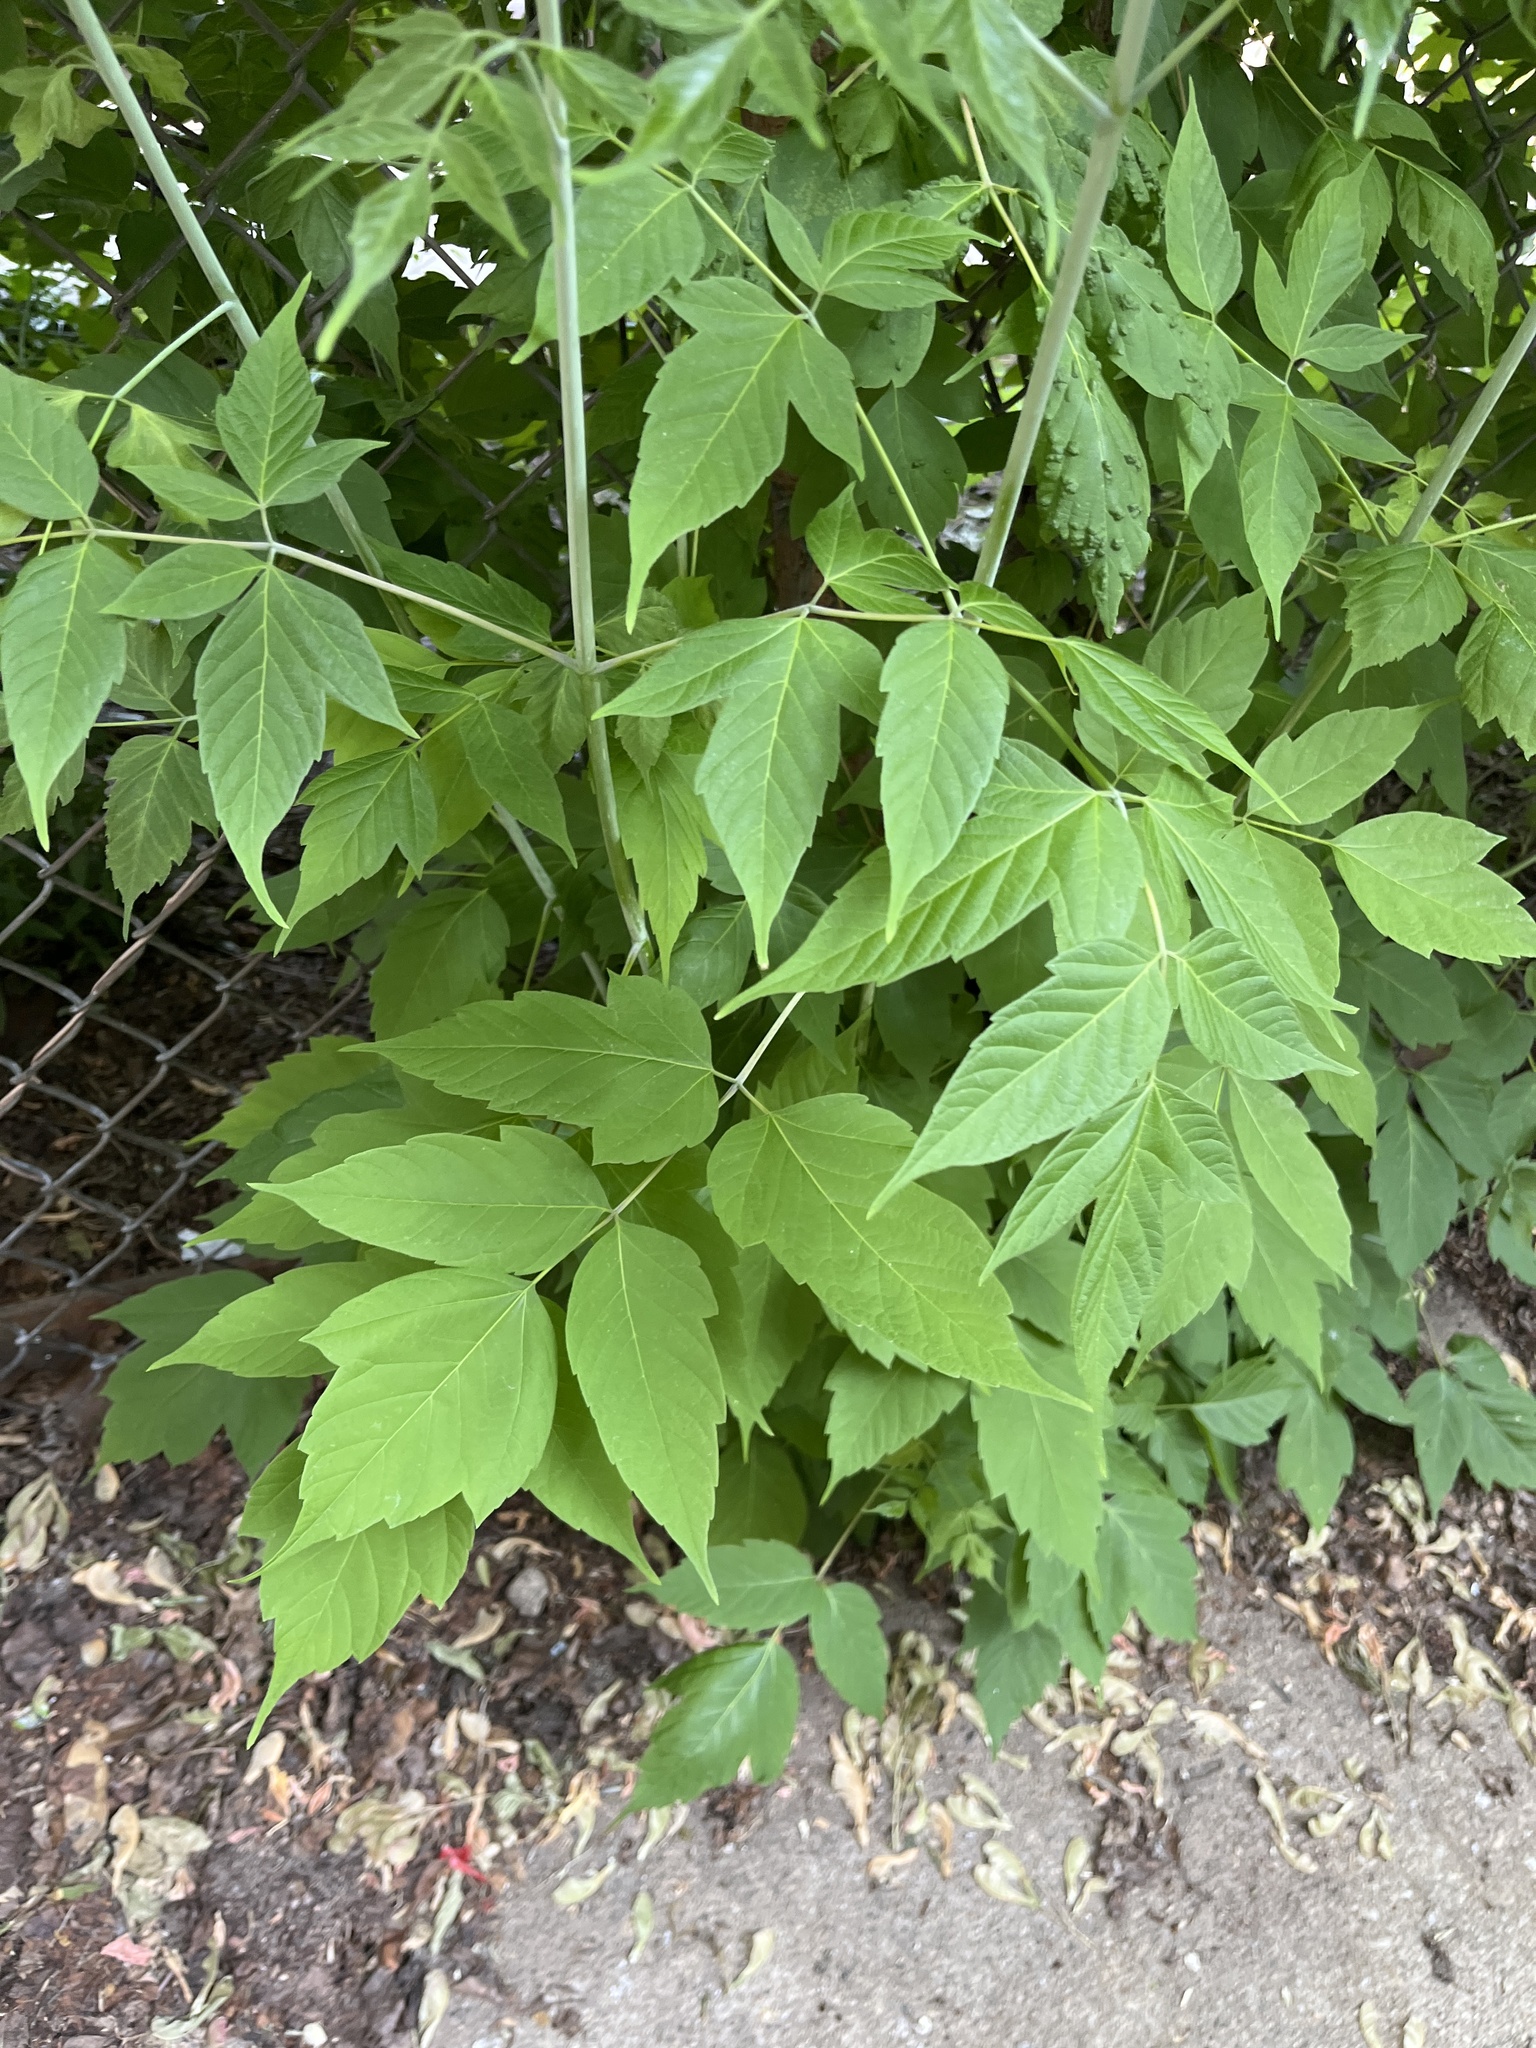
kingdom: Plantae
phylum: Tracheophyta
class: Magnoliopsida
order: Sapindales
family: Sapindaceae
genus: Acer
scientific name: Acer negundo
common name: Ashleaf maple
